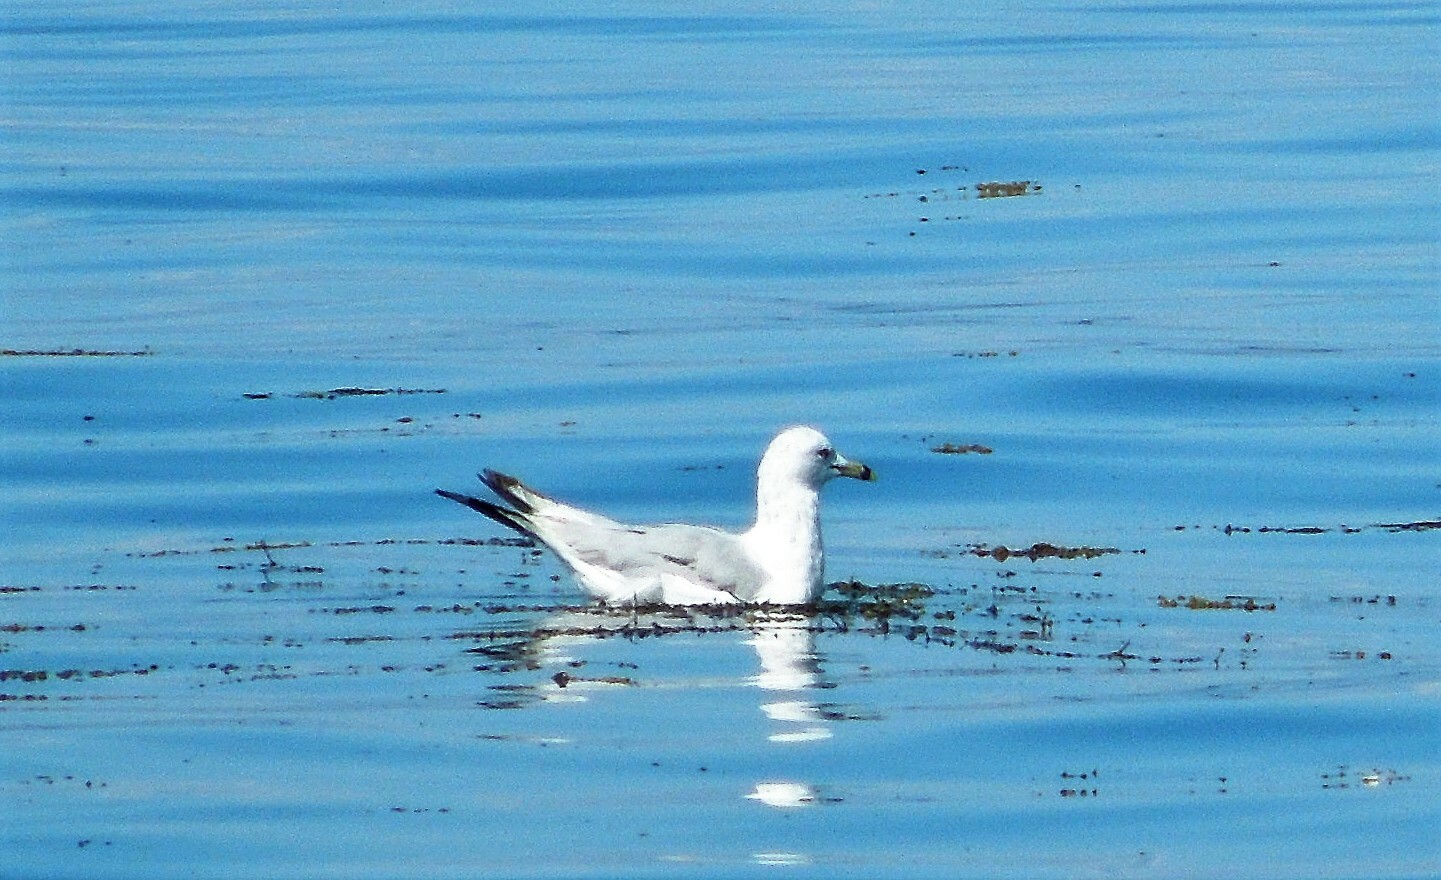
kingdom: Animalia
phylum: Chordata
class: Aves
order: Charadriiformes
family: Laridae
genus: Larus
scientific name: Larus delawarensis
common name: Ring-billed gull
